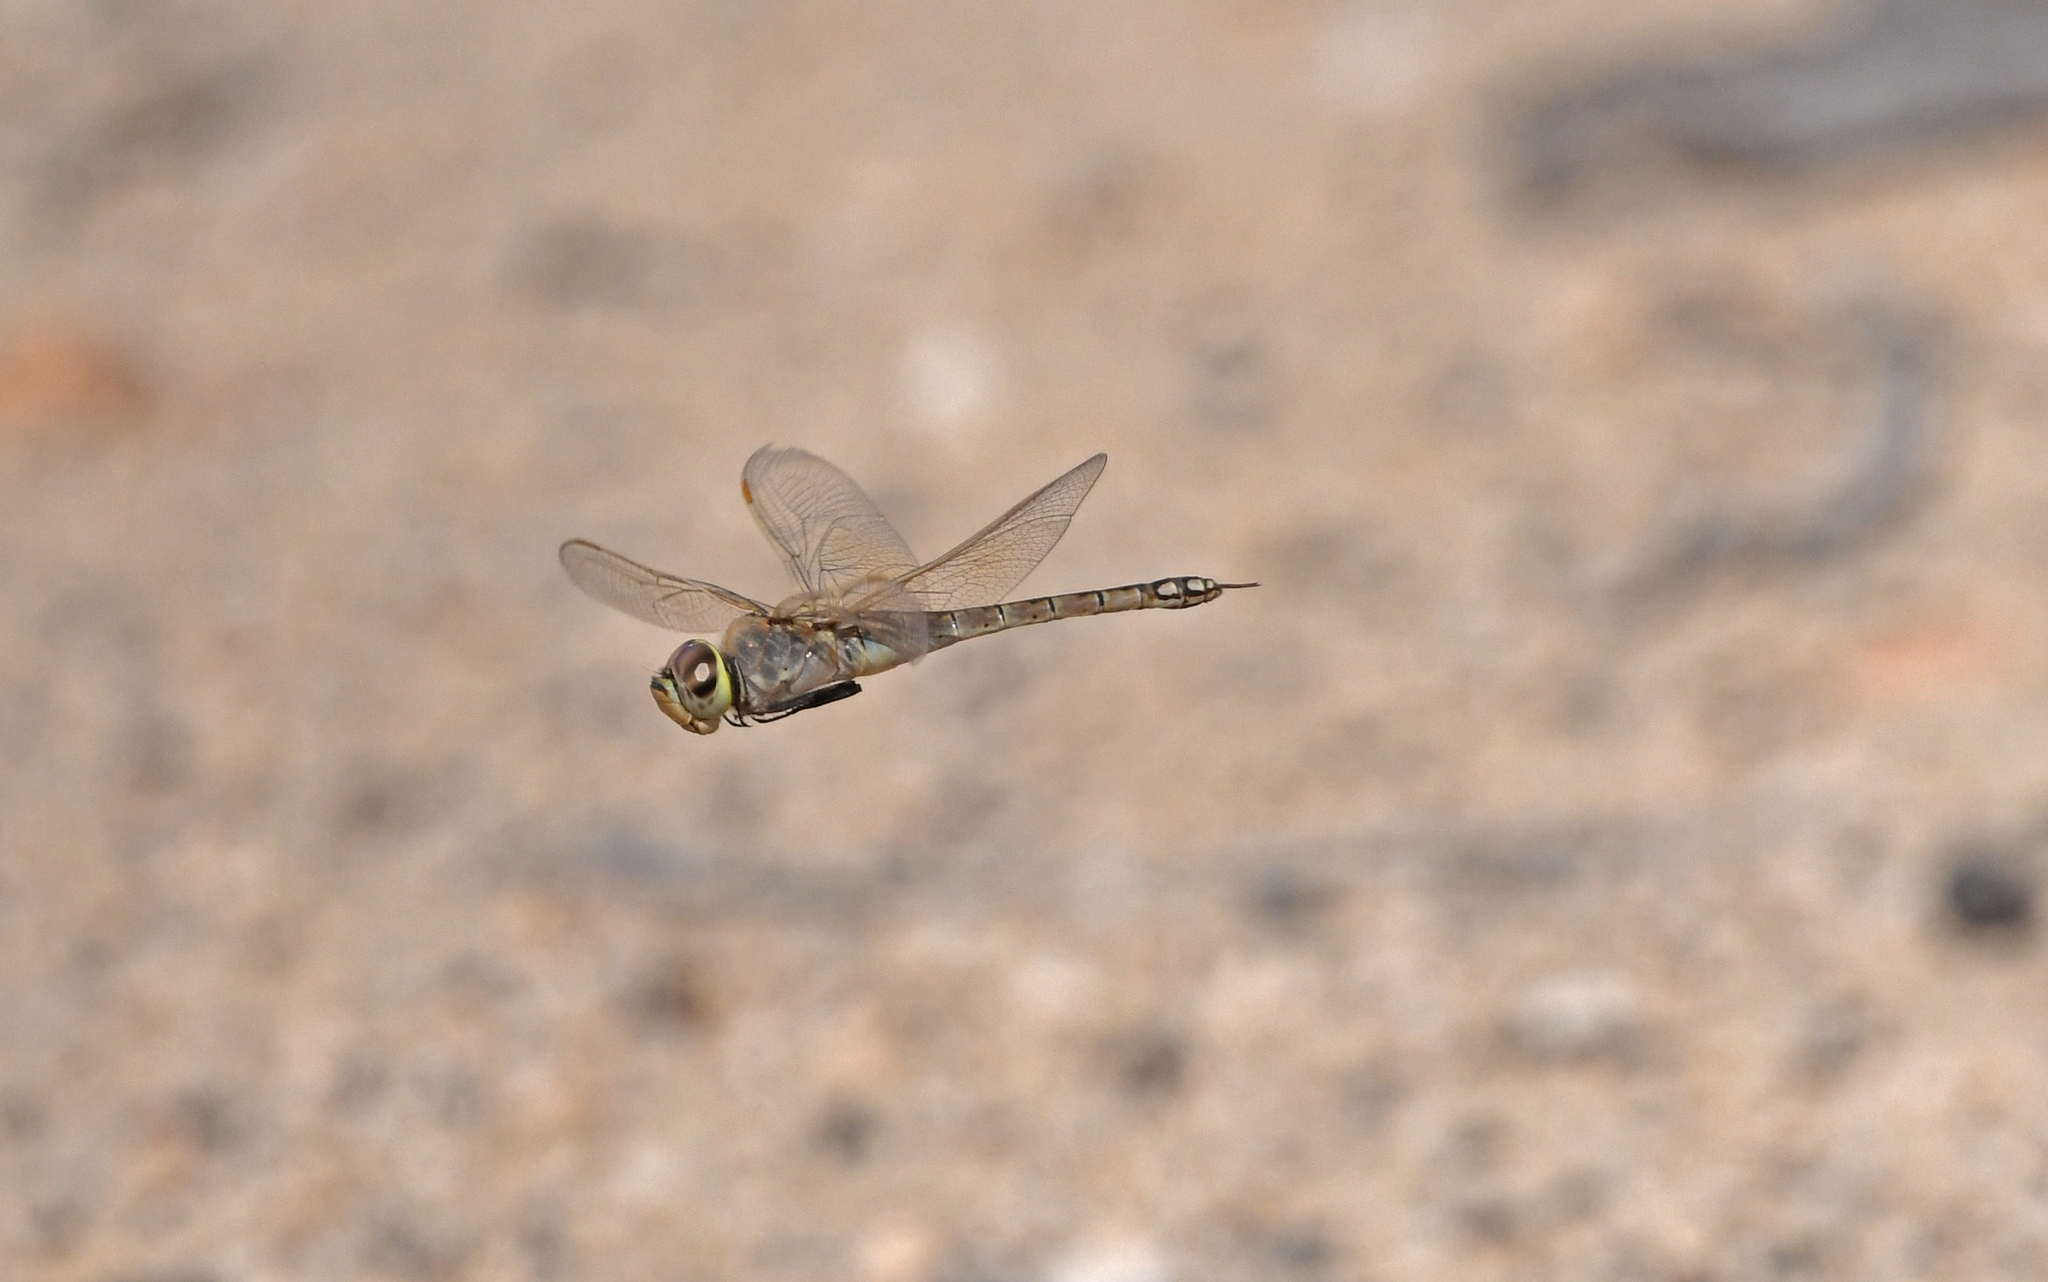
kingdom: Animalia
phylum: Arthropoda
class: Insecta
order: Odonata
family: Aeshnidae
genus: Anax
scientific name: Anax ephippiger
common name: Vagrant emperor
